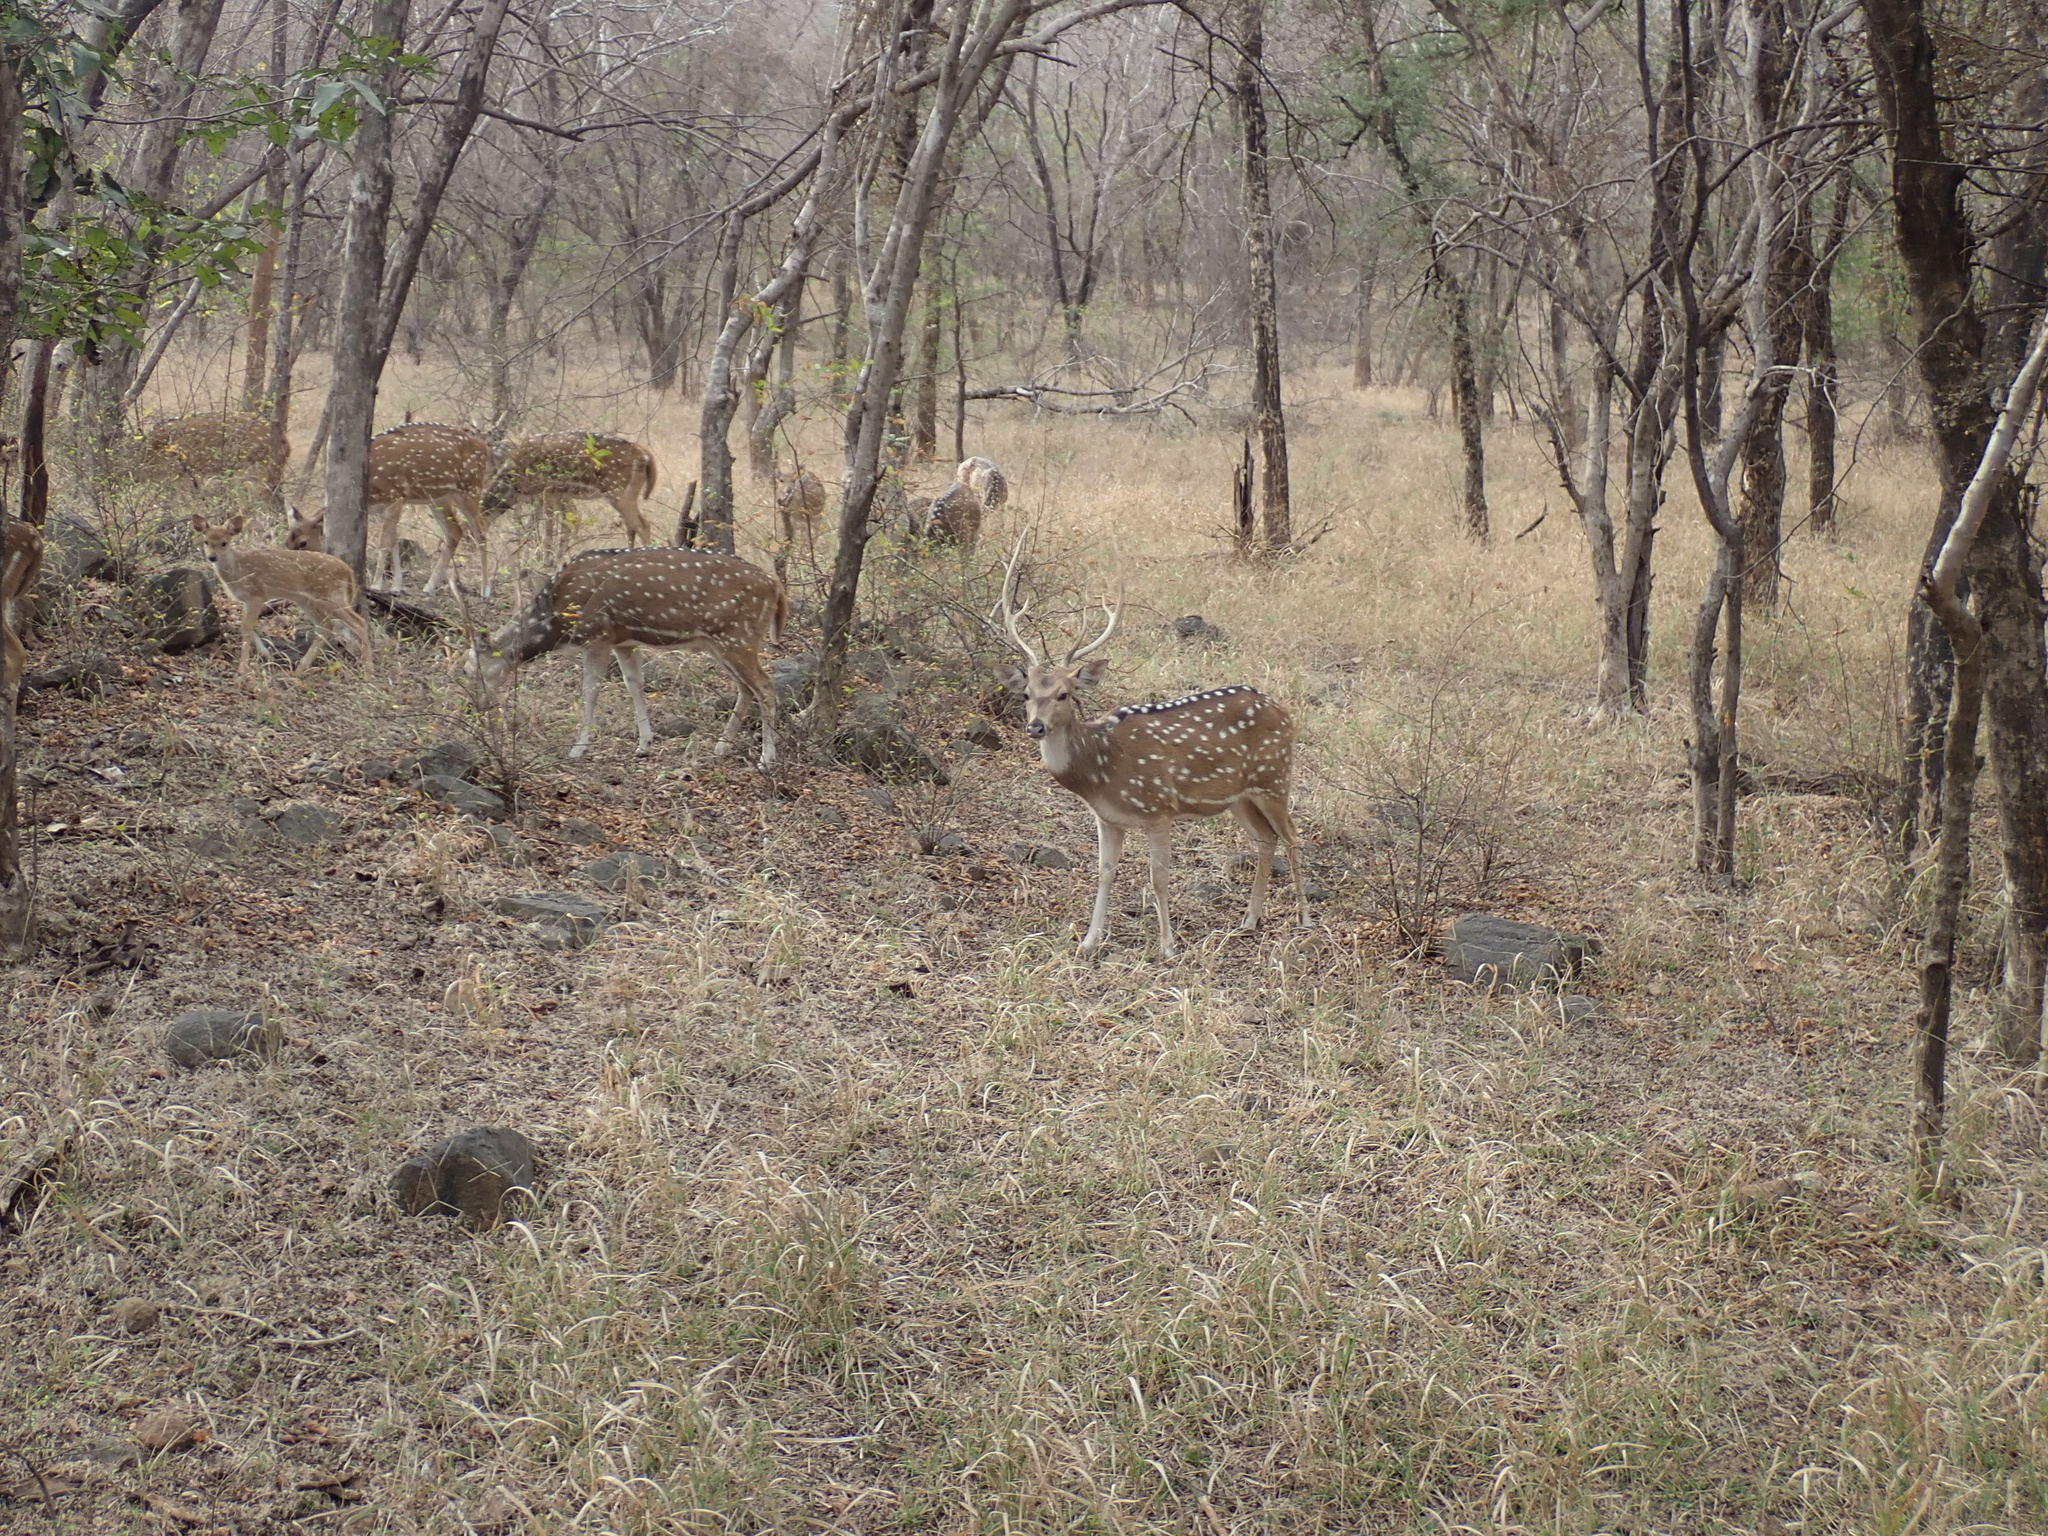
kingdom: Animalia
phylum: Chordata
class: Mammalia
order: Artiodactyla
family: Cervidae
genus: Axis
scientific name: Axis axis
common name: Chital
